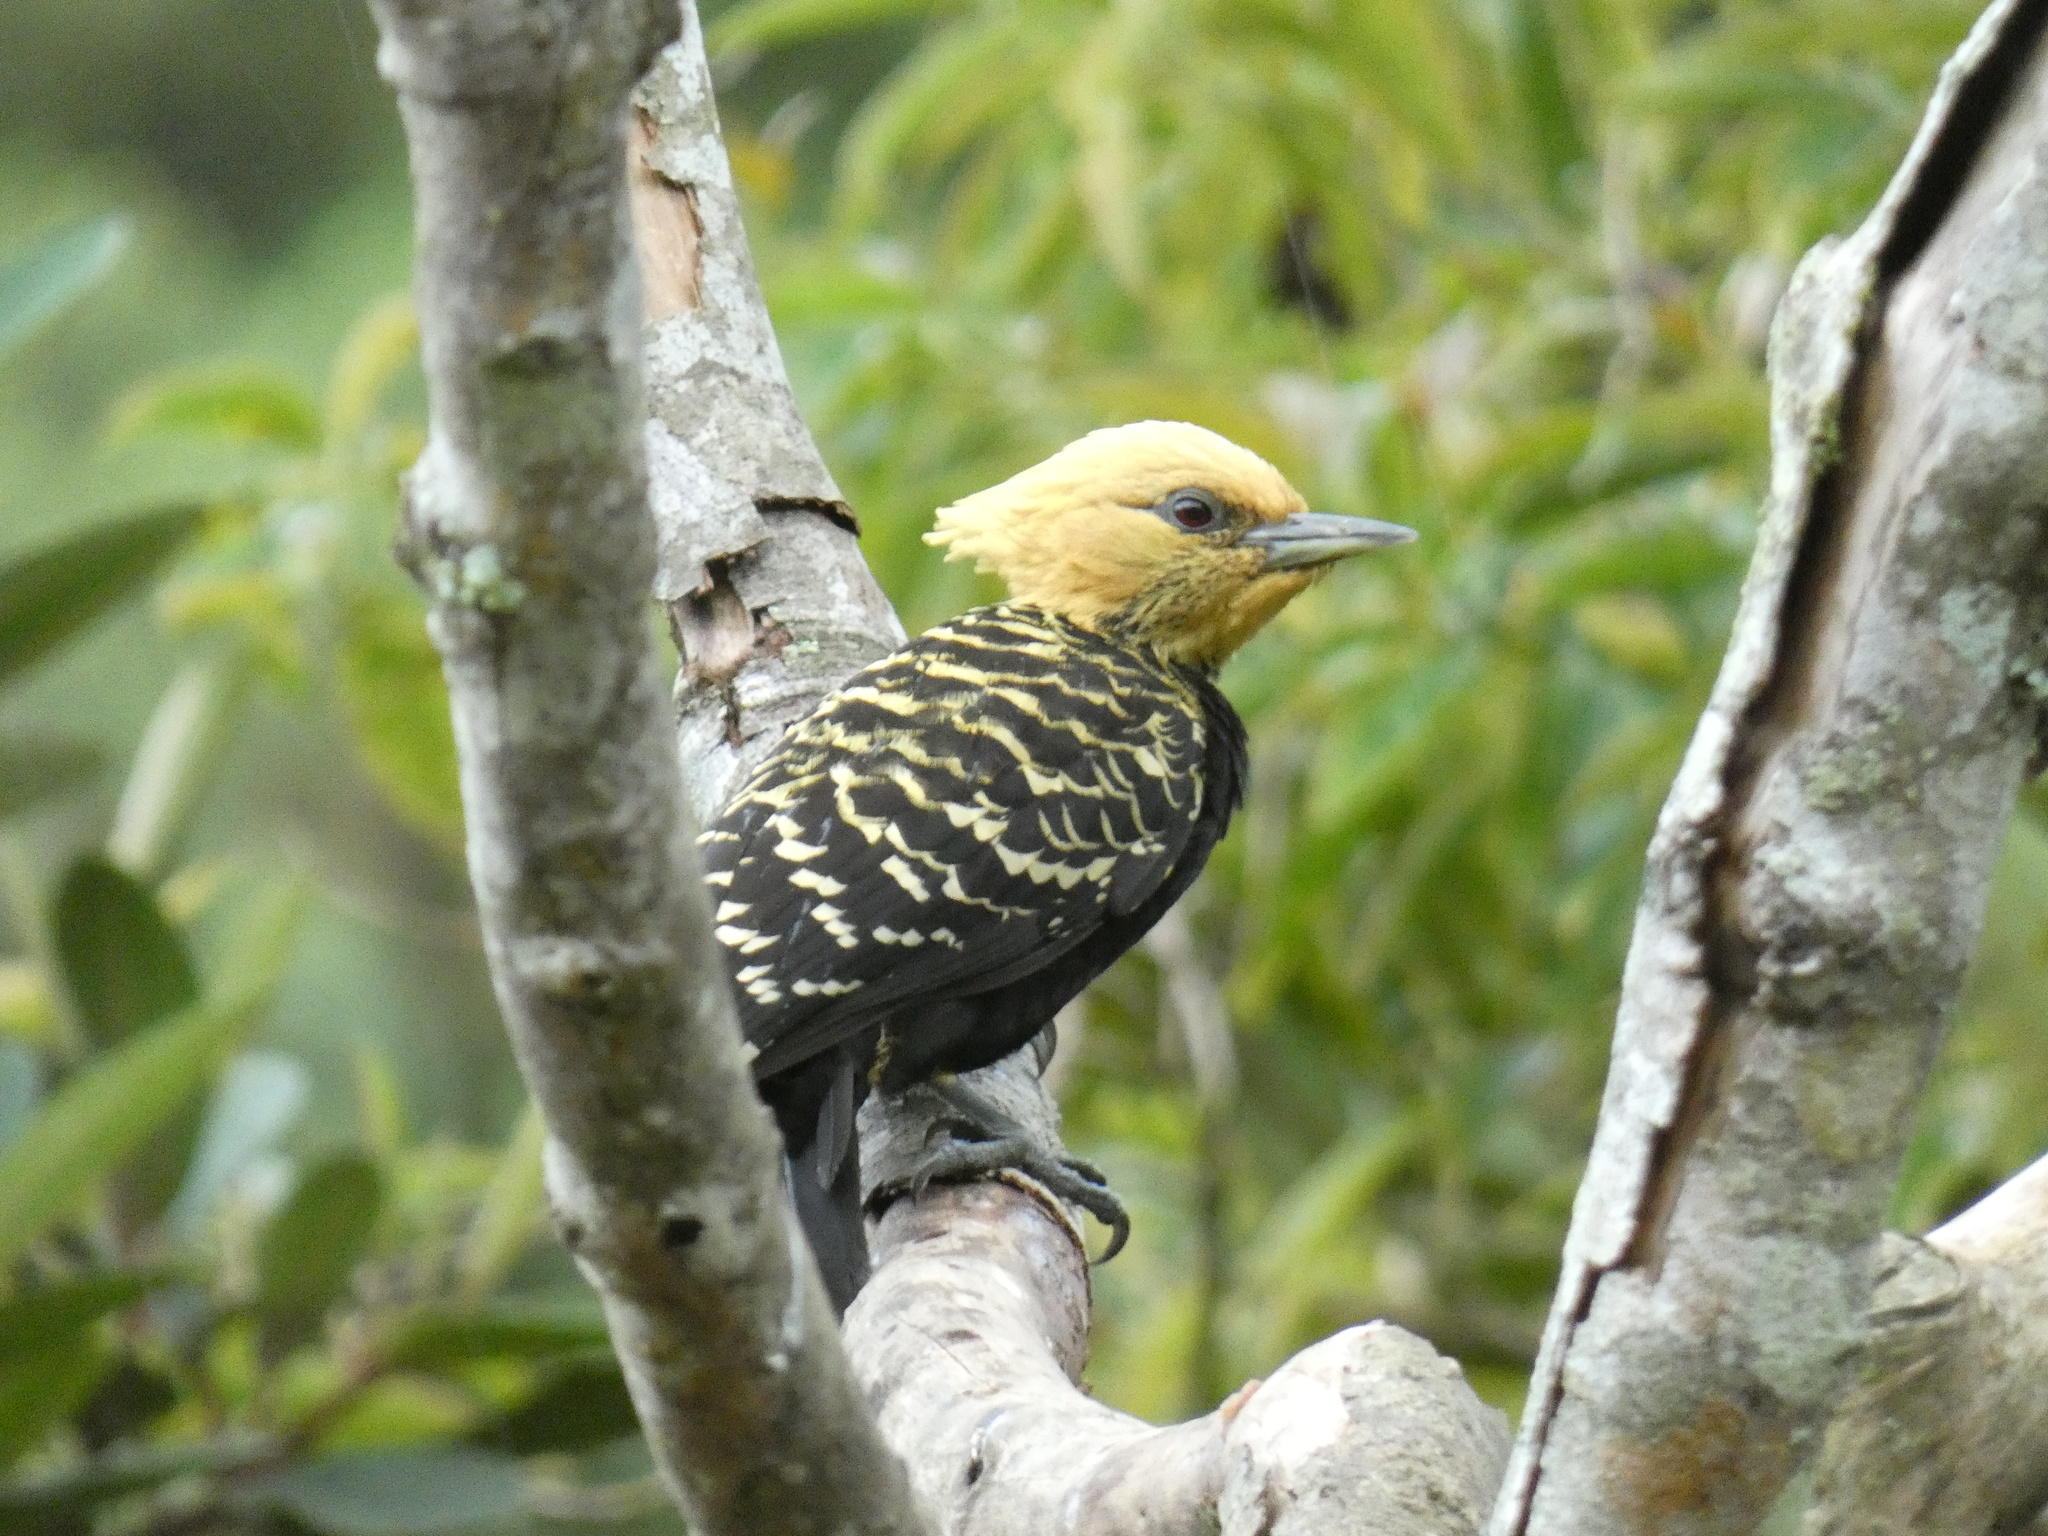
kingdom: Animalia
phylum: Chordata
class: Aves
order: Piciformes
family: Picidae
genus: Celeus
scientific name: Celeus flavescens
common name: Blond-crested woodpecker
